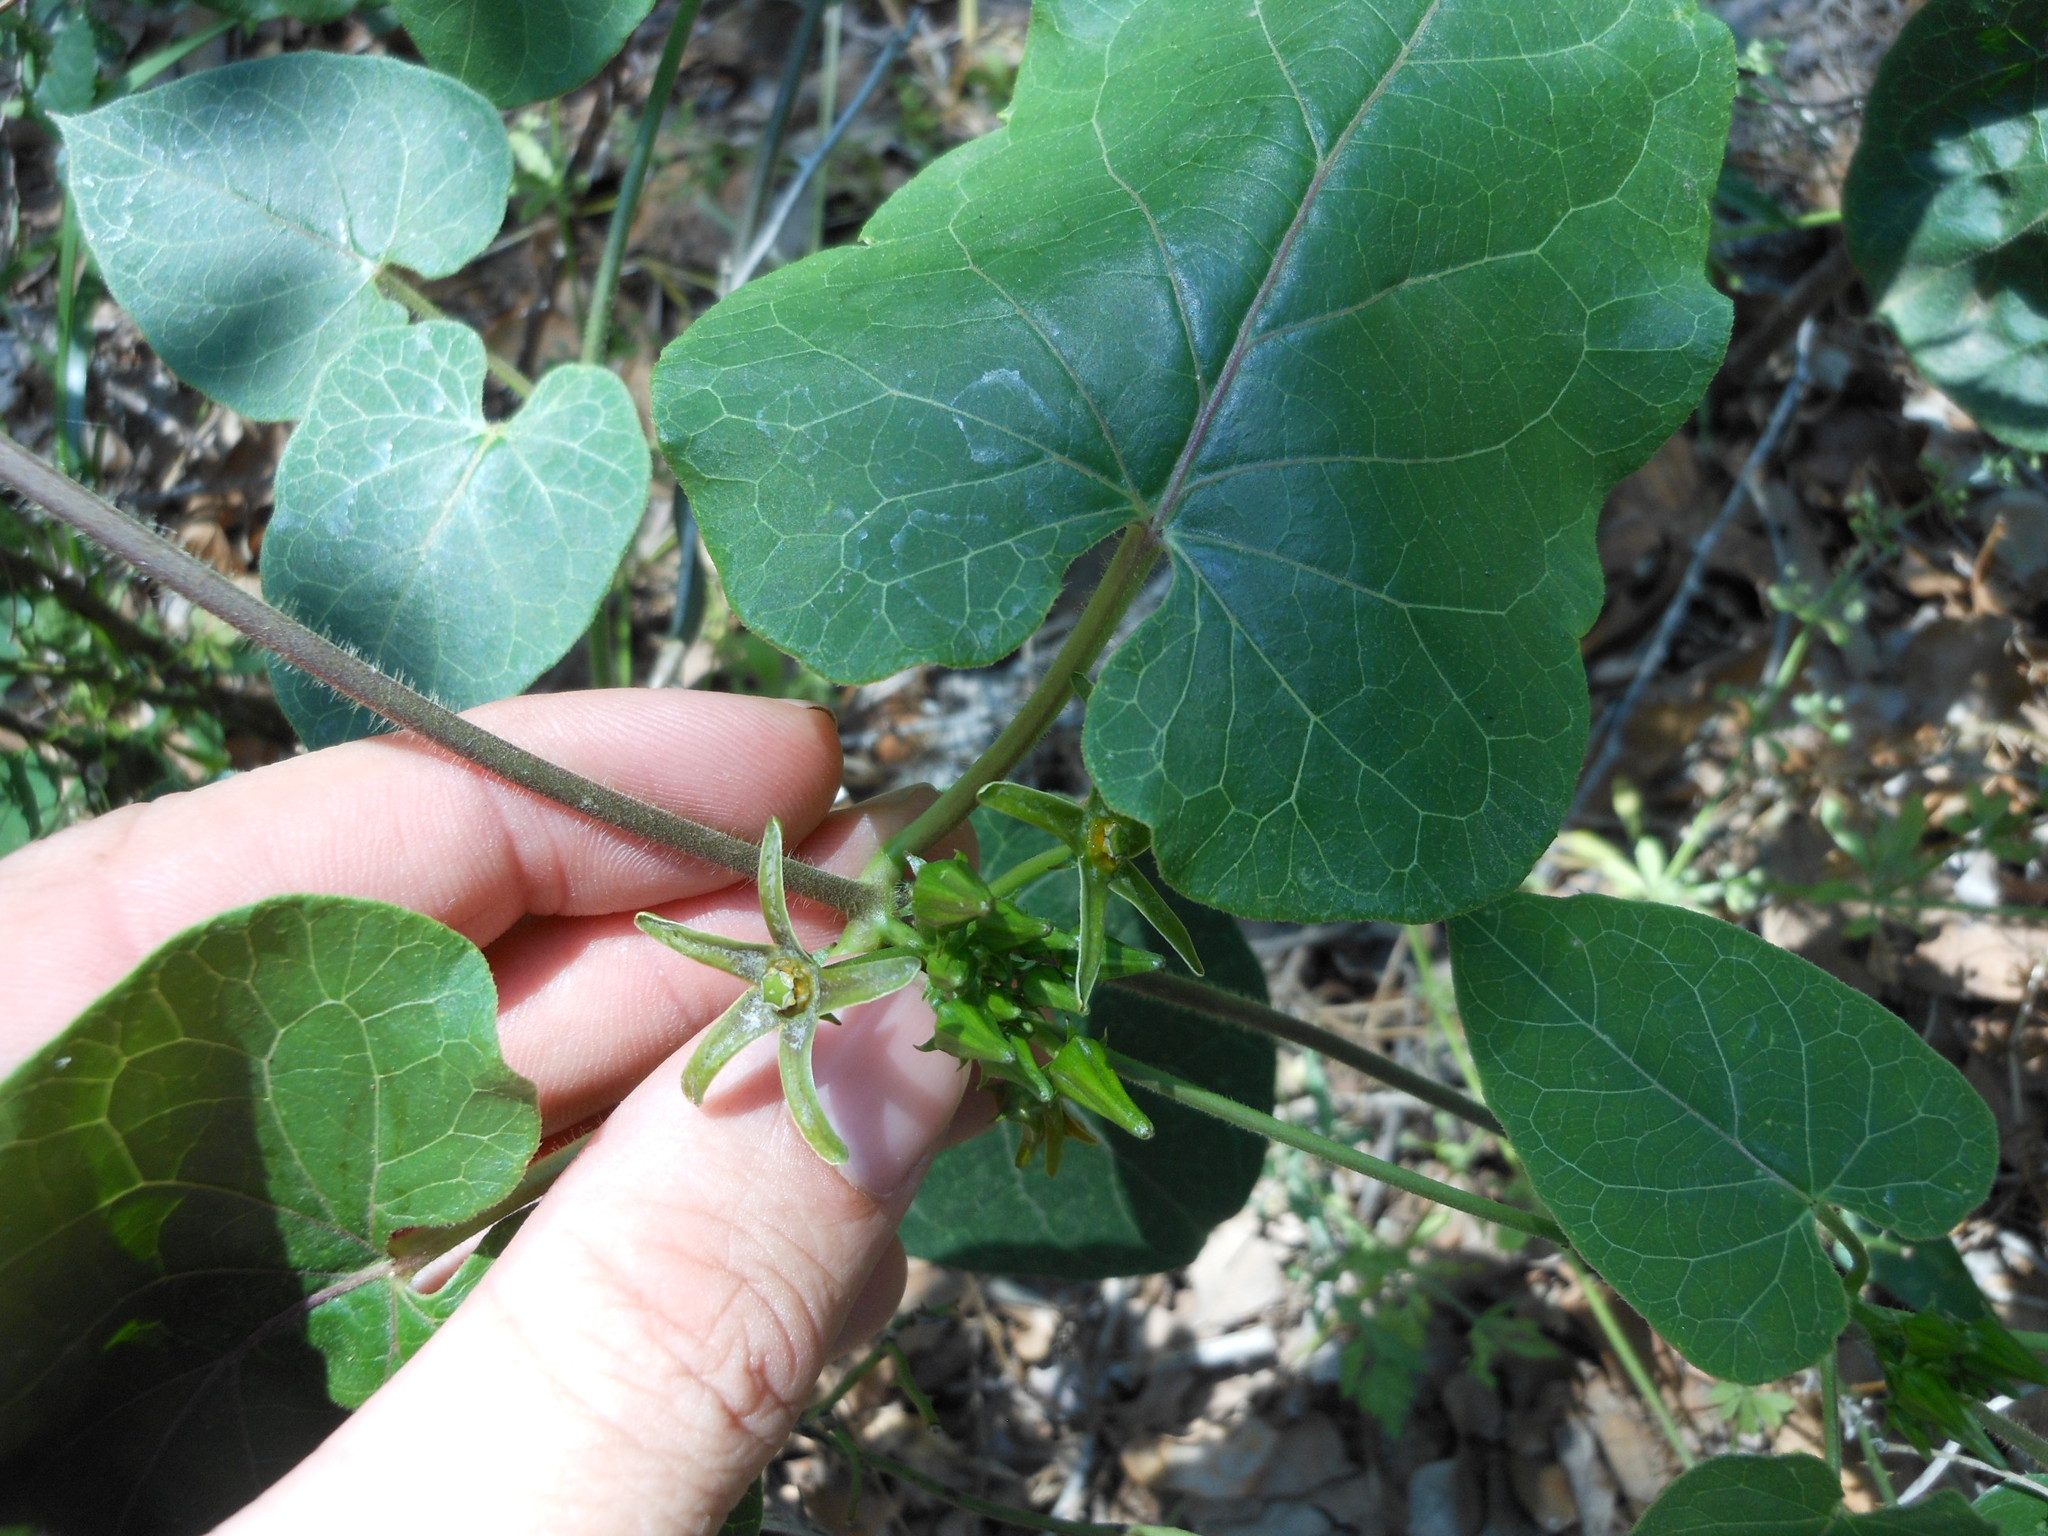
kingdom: Plantae
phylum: Tracheophyta
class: Magnoliopsida
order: Gentianales
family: Apocynaceae
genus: Gonolobus
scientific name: Gonolobus suberosus
